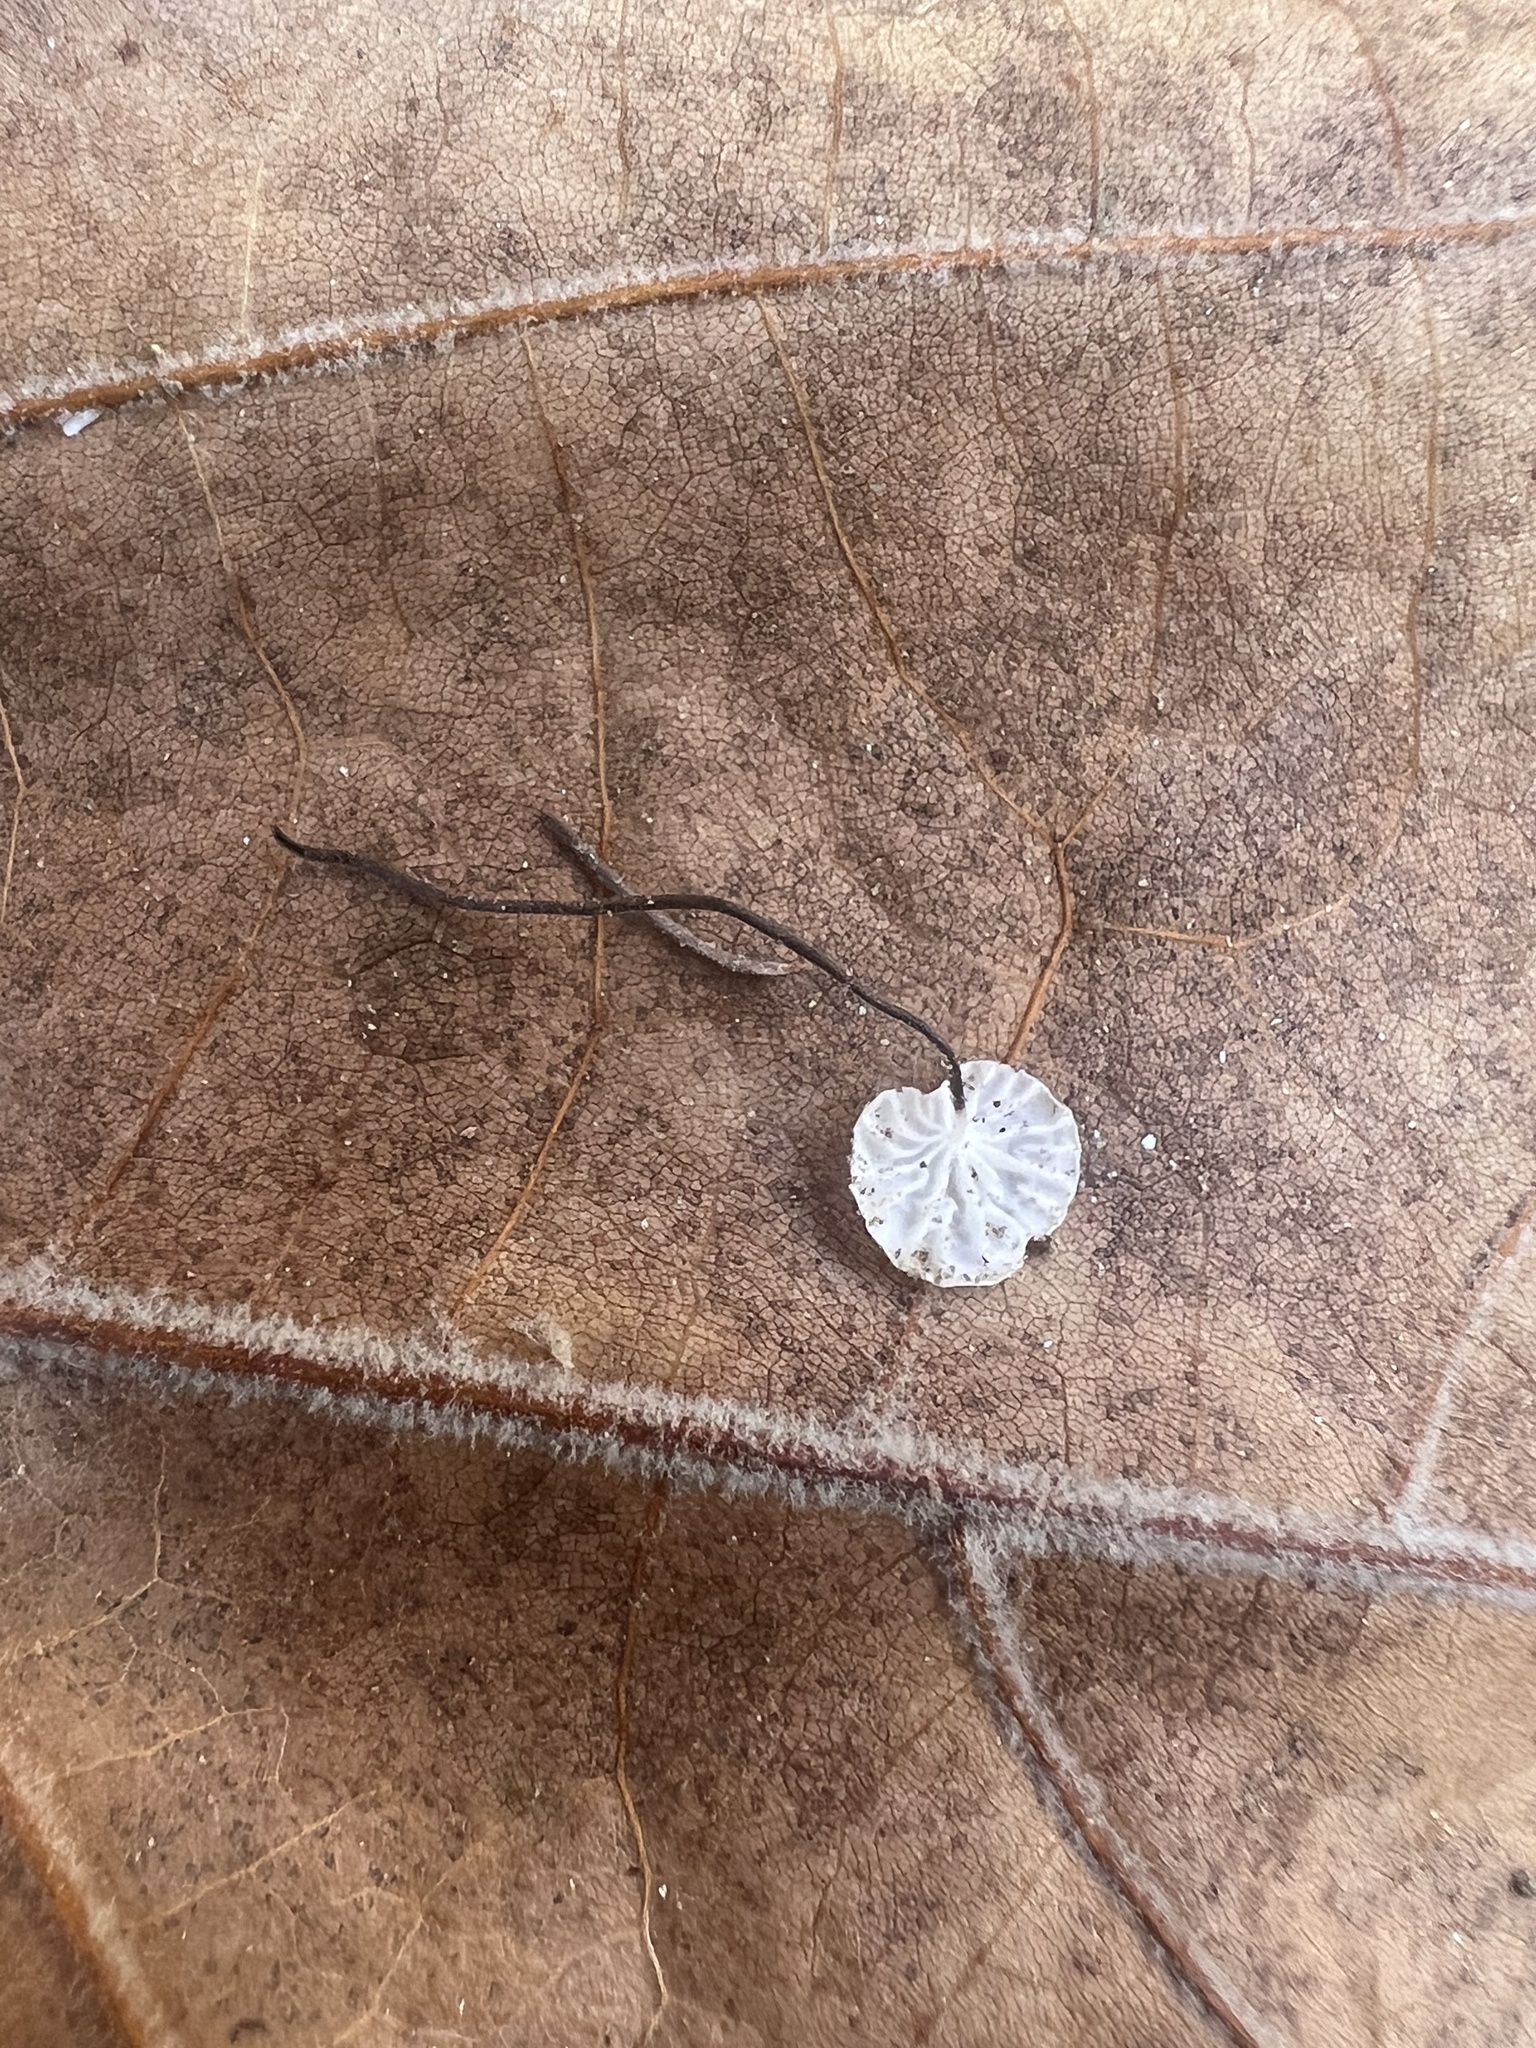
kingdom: Fungi
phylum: Basidiomycota
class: Agaricomycetes
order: Agaricales
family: Marasmiaceae
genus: Marasmius
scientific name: Marasmius felix
